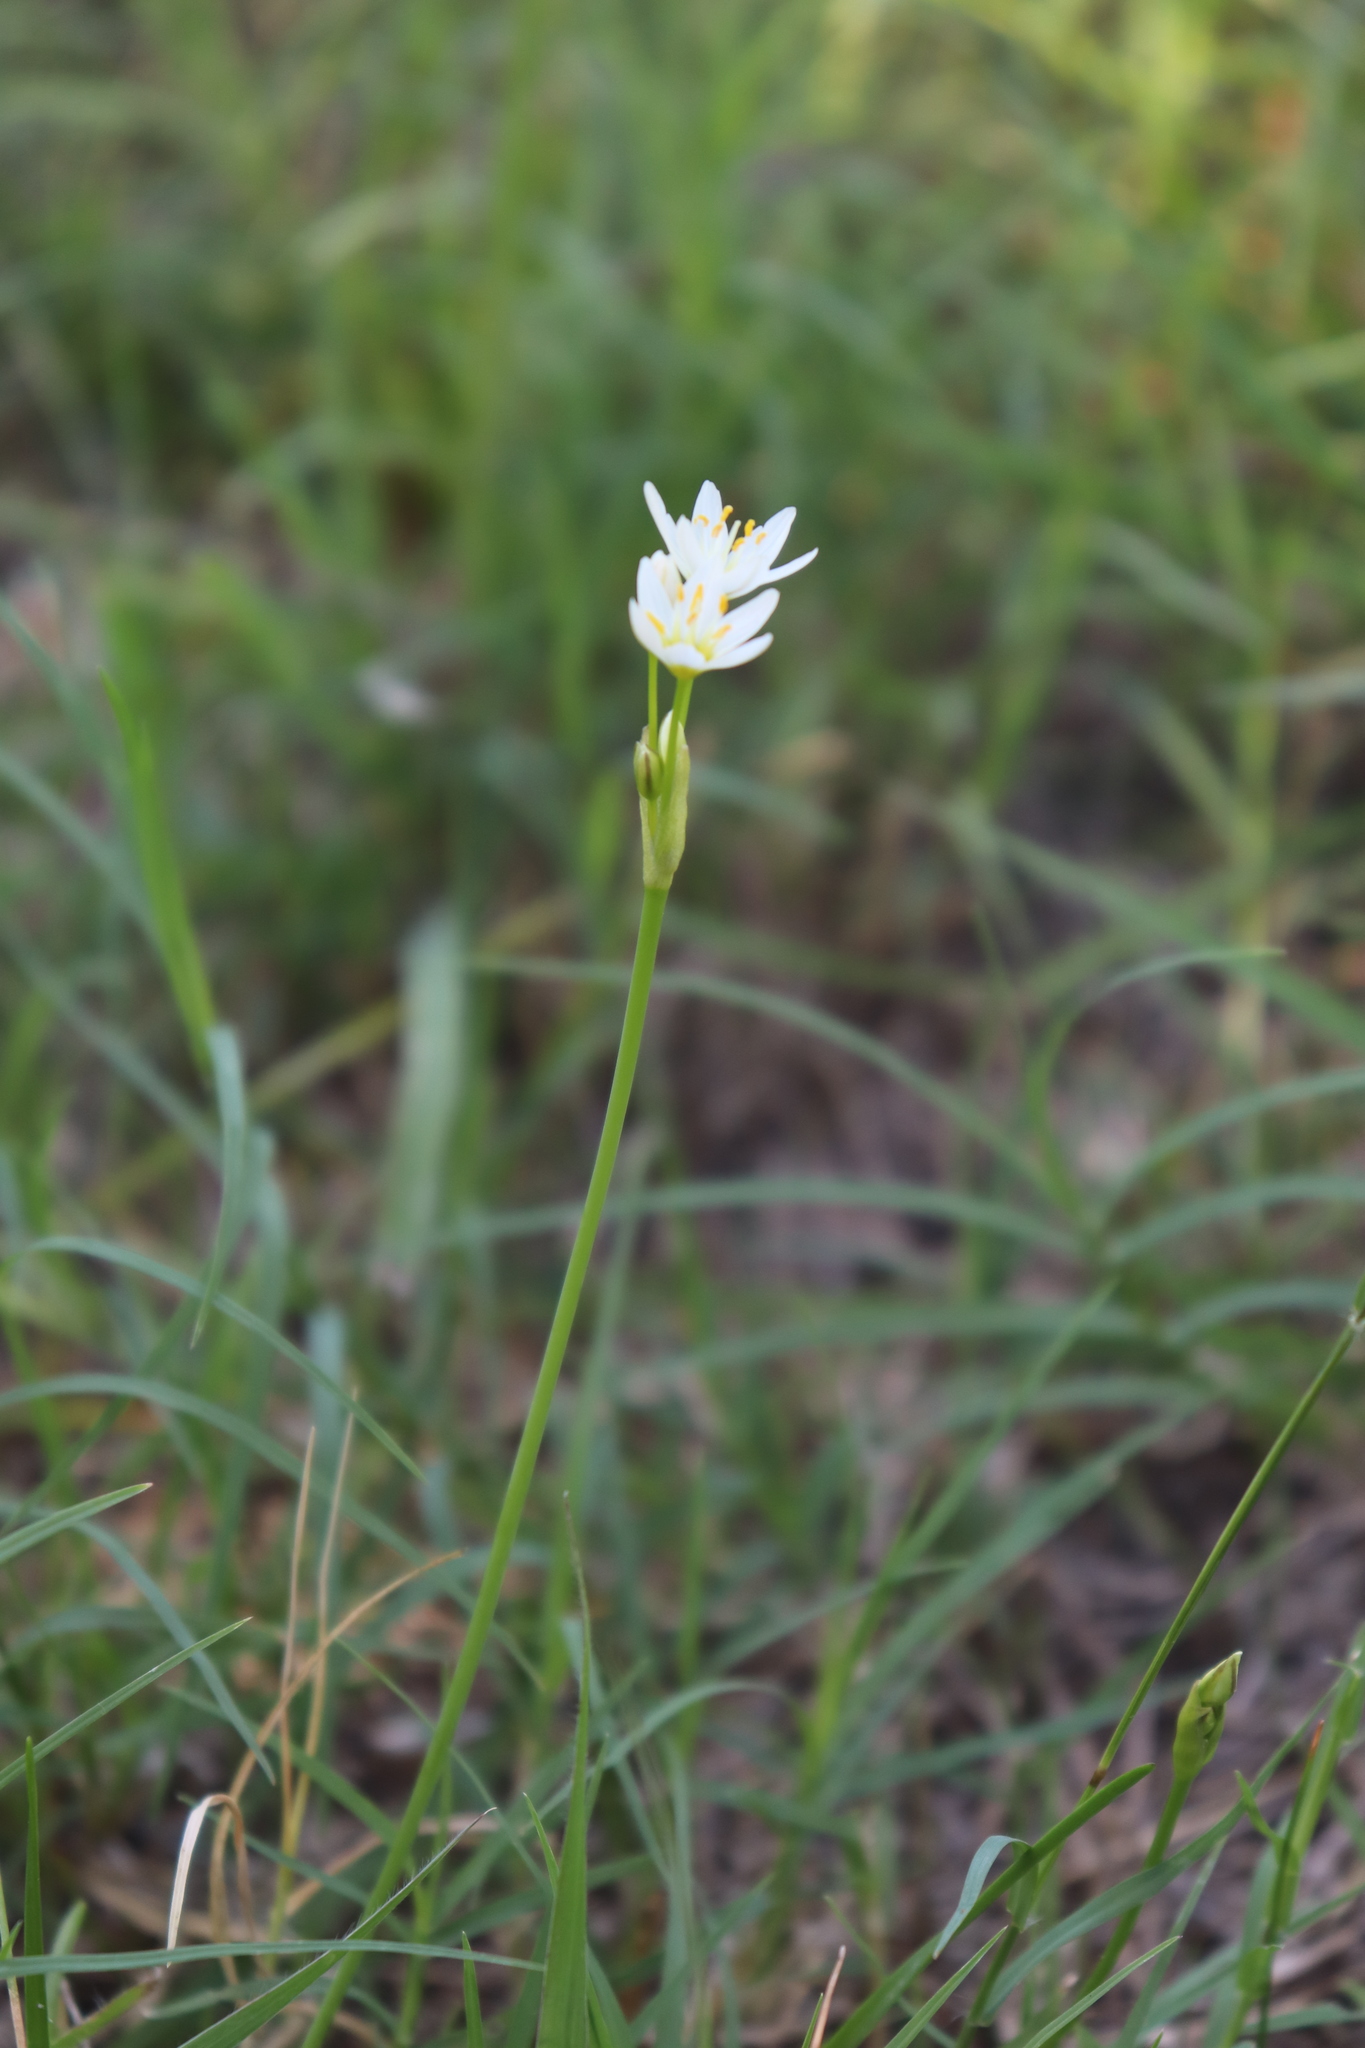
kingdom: Plantae
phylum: Tracheophyta
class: Liliopsida
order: Asparagales
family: Amaryllidaceae
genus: Nothoscordum
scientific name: Nothoscordum bivalve
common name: Crow-poison
